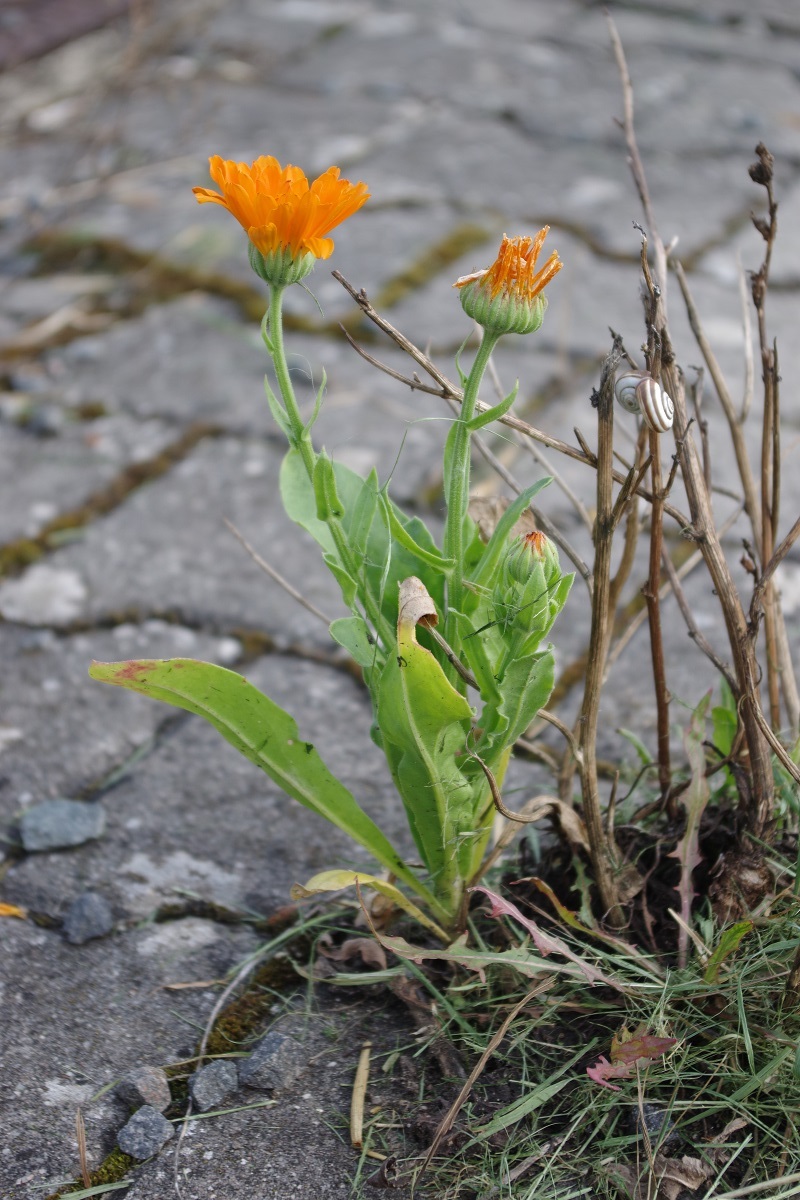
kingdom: Plantae
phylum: Tracheophyta
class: Magnoliopsida
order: Asterales
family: Asteraceae
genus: Calendula
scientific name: Calendula officinalis
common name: Pot marigold
